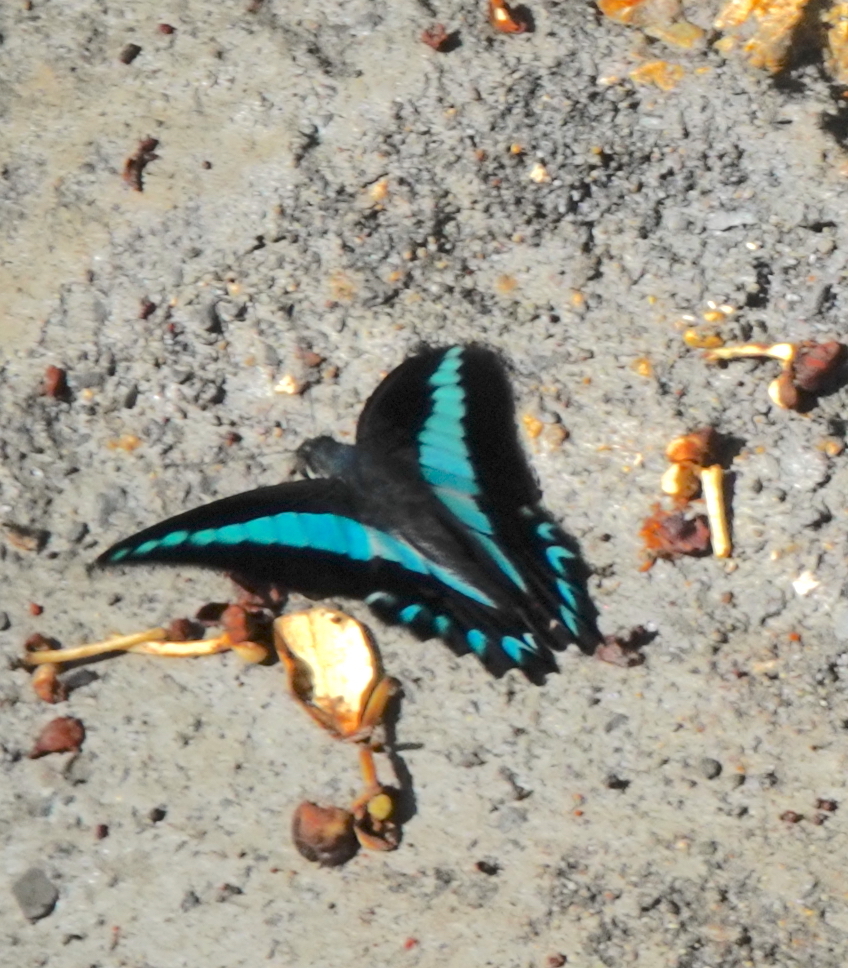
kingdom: Animalia
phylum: Arthropoda
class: Insecta
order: Lepidoptera
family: Papilionidae
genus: Graphium
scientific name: Graphium antheus
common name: Large striped swordtail
